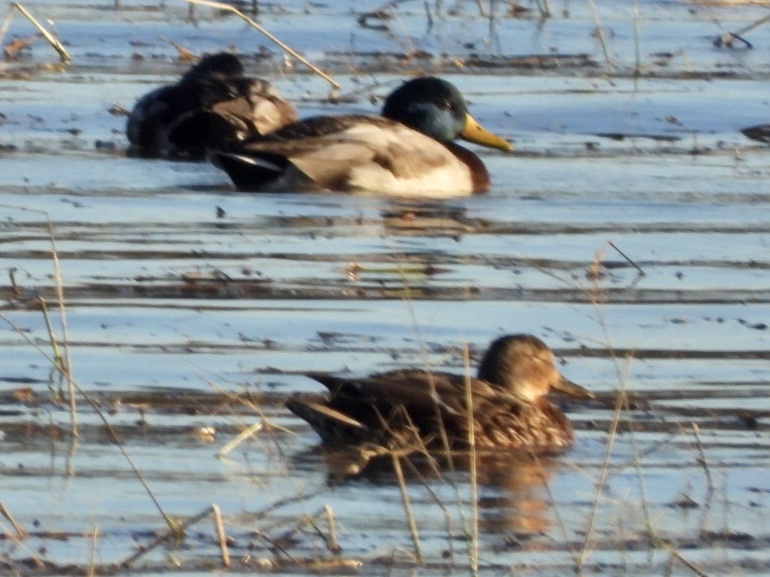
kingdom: Animalia
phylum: Chordata
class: Aves
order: Anseriformes
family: Anatidae
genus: Anas
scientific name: Anas platyrhynchos
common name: Mallard
